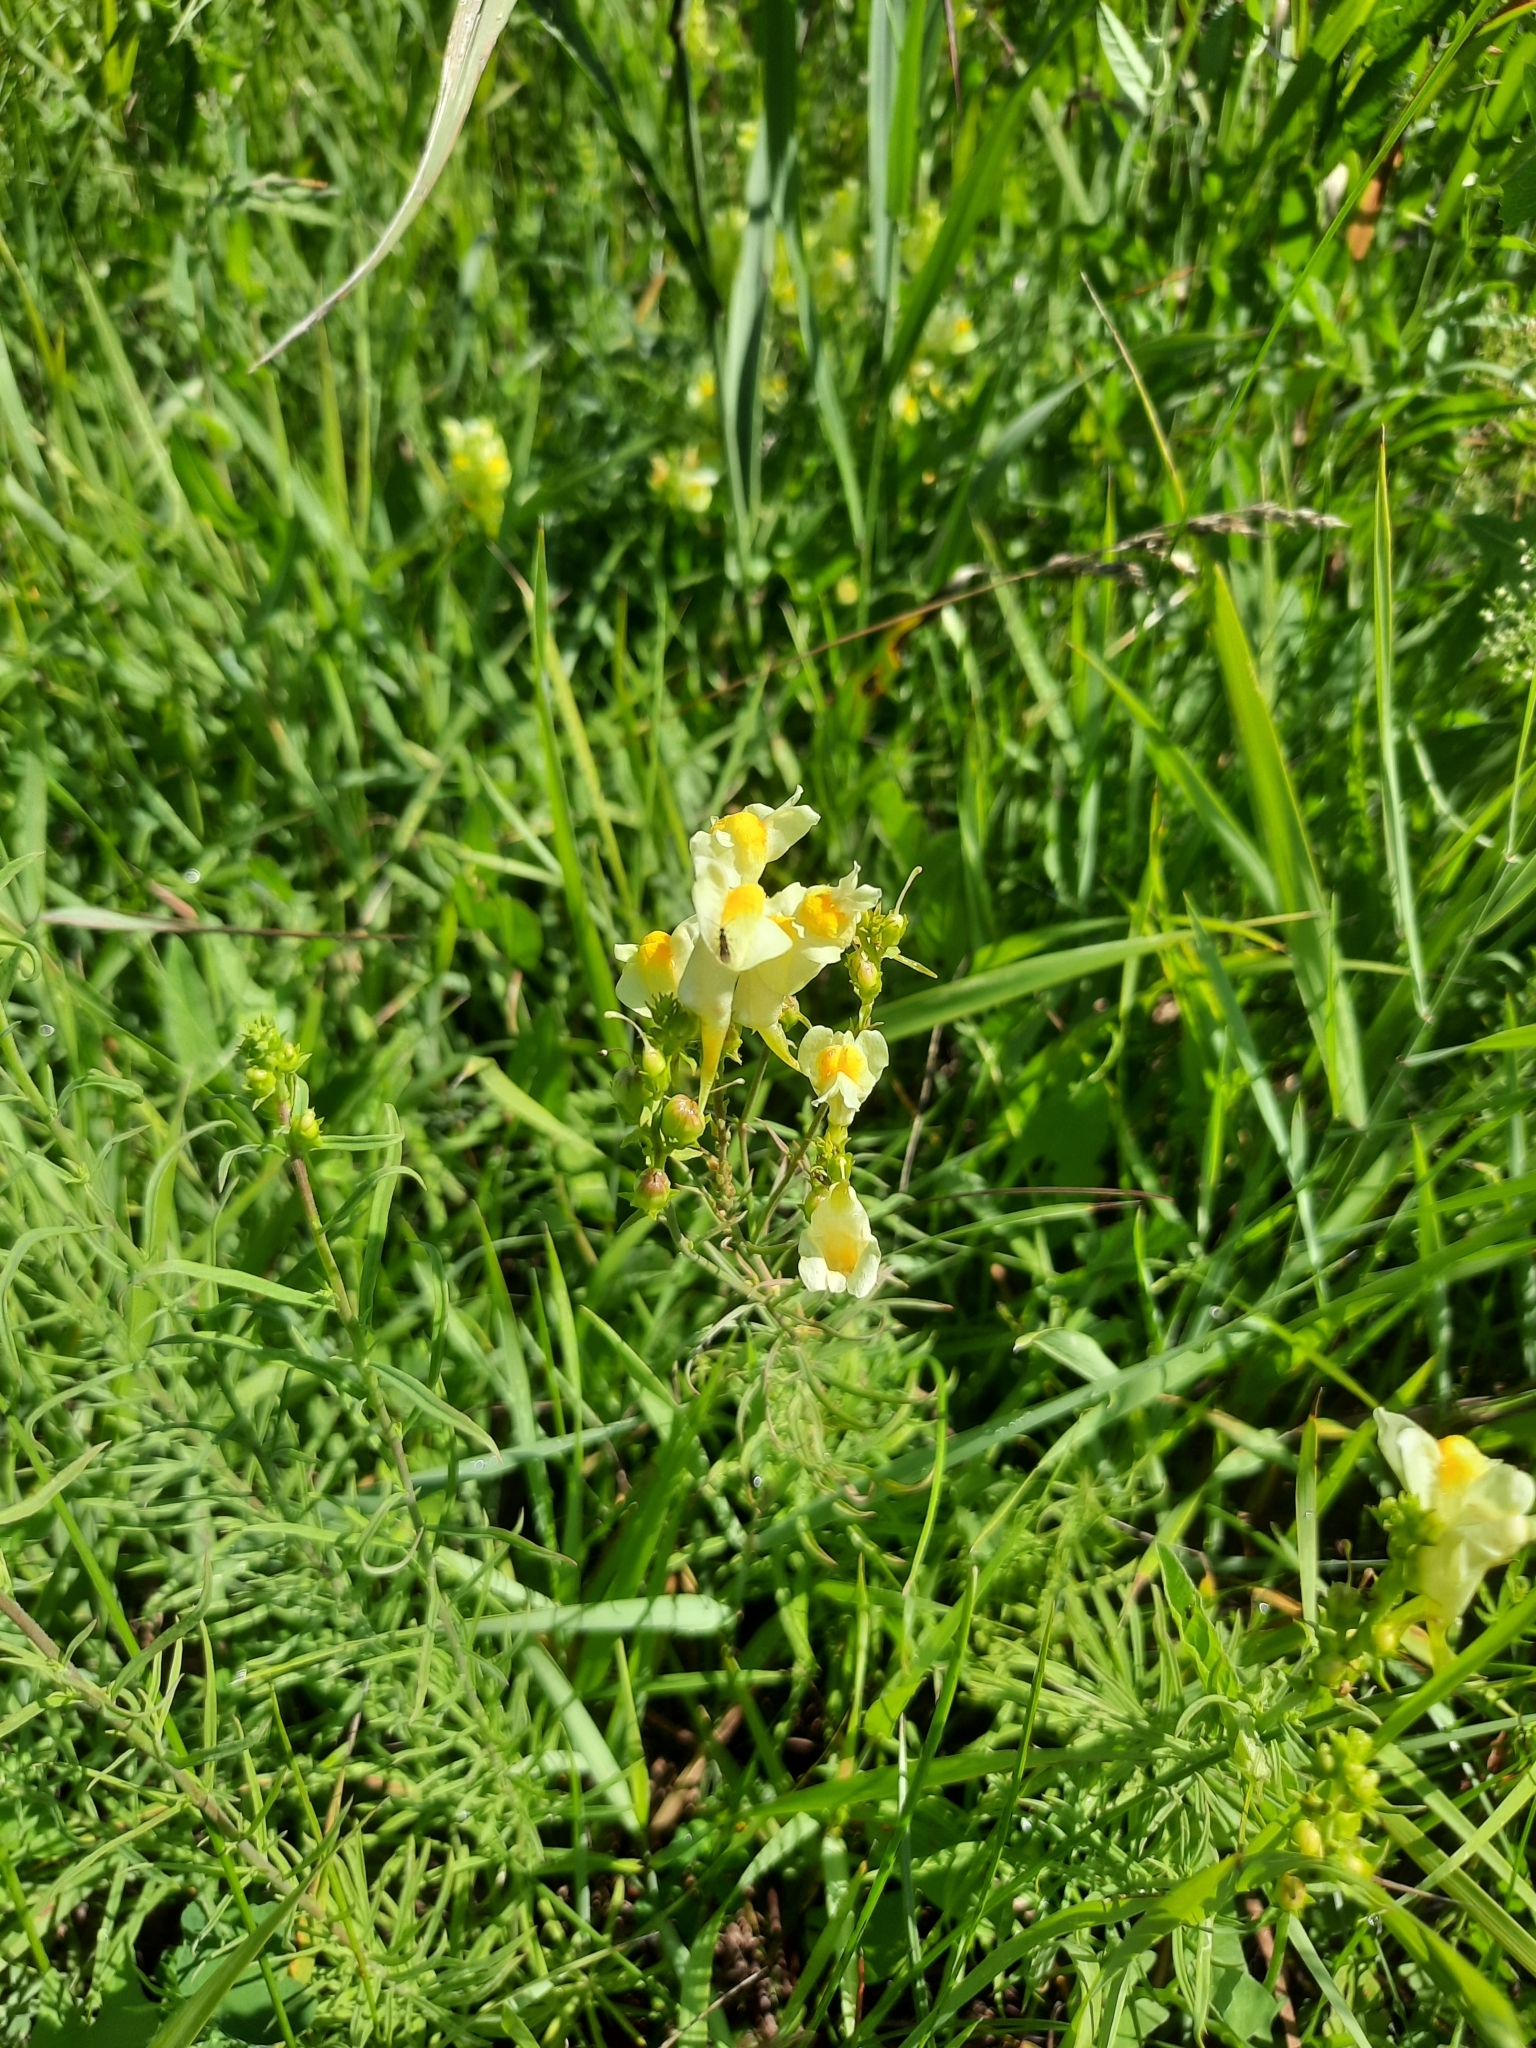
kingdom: Plantae
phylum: Tracheophyta
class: Magnoliopsida
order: Lamiales
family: Plantaginaceae
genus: Linaria
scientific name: Linaria vulgaris
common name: Butter and eggs
